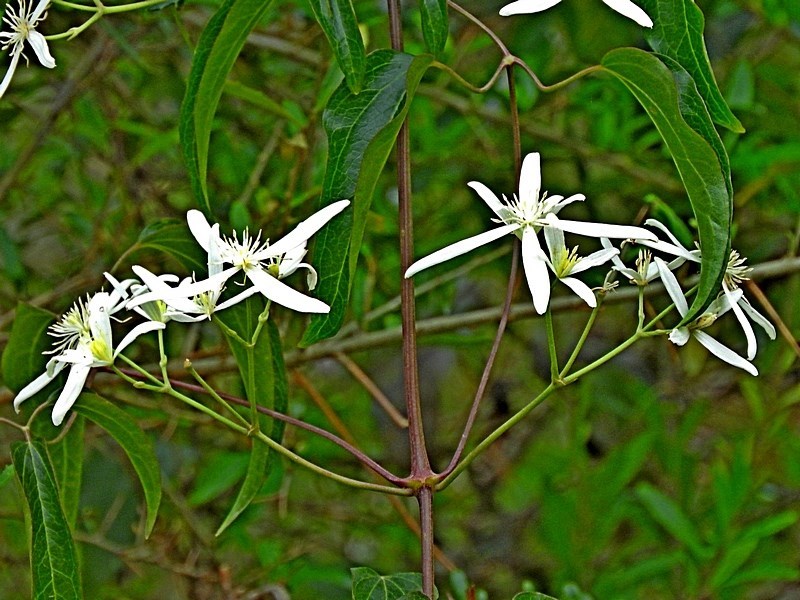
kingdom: Plantae
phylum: Tracheophyta
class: Magnoliopsida
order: Ranunculales
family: Ranunculaceae
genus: Clematis
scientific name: Clematis glycinoides
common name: Forest clematis
